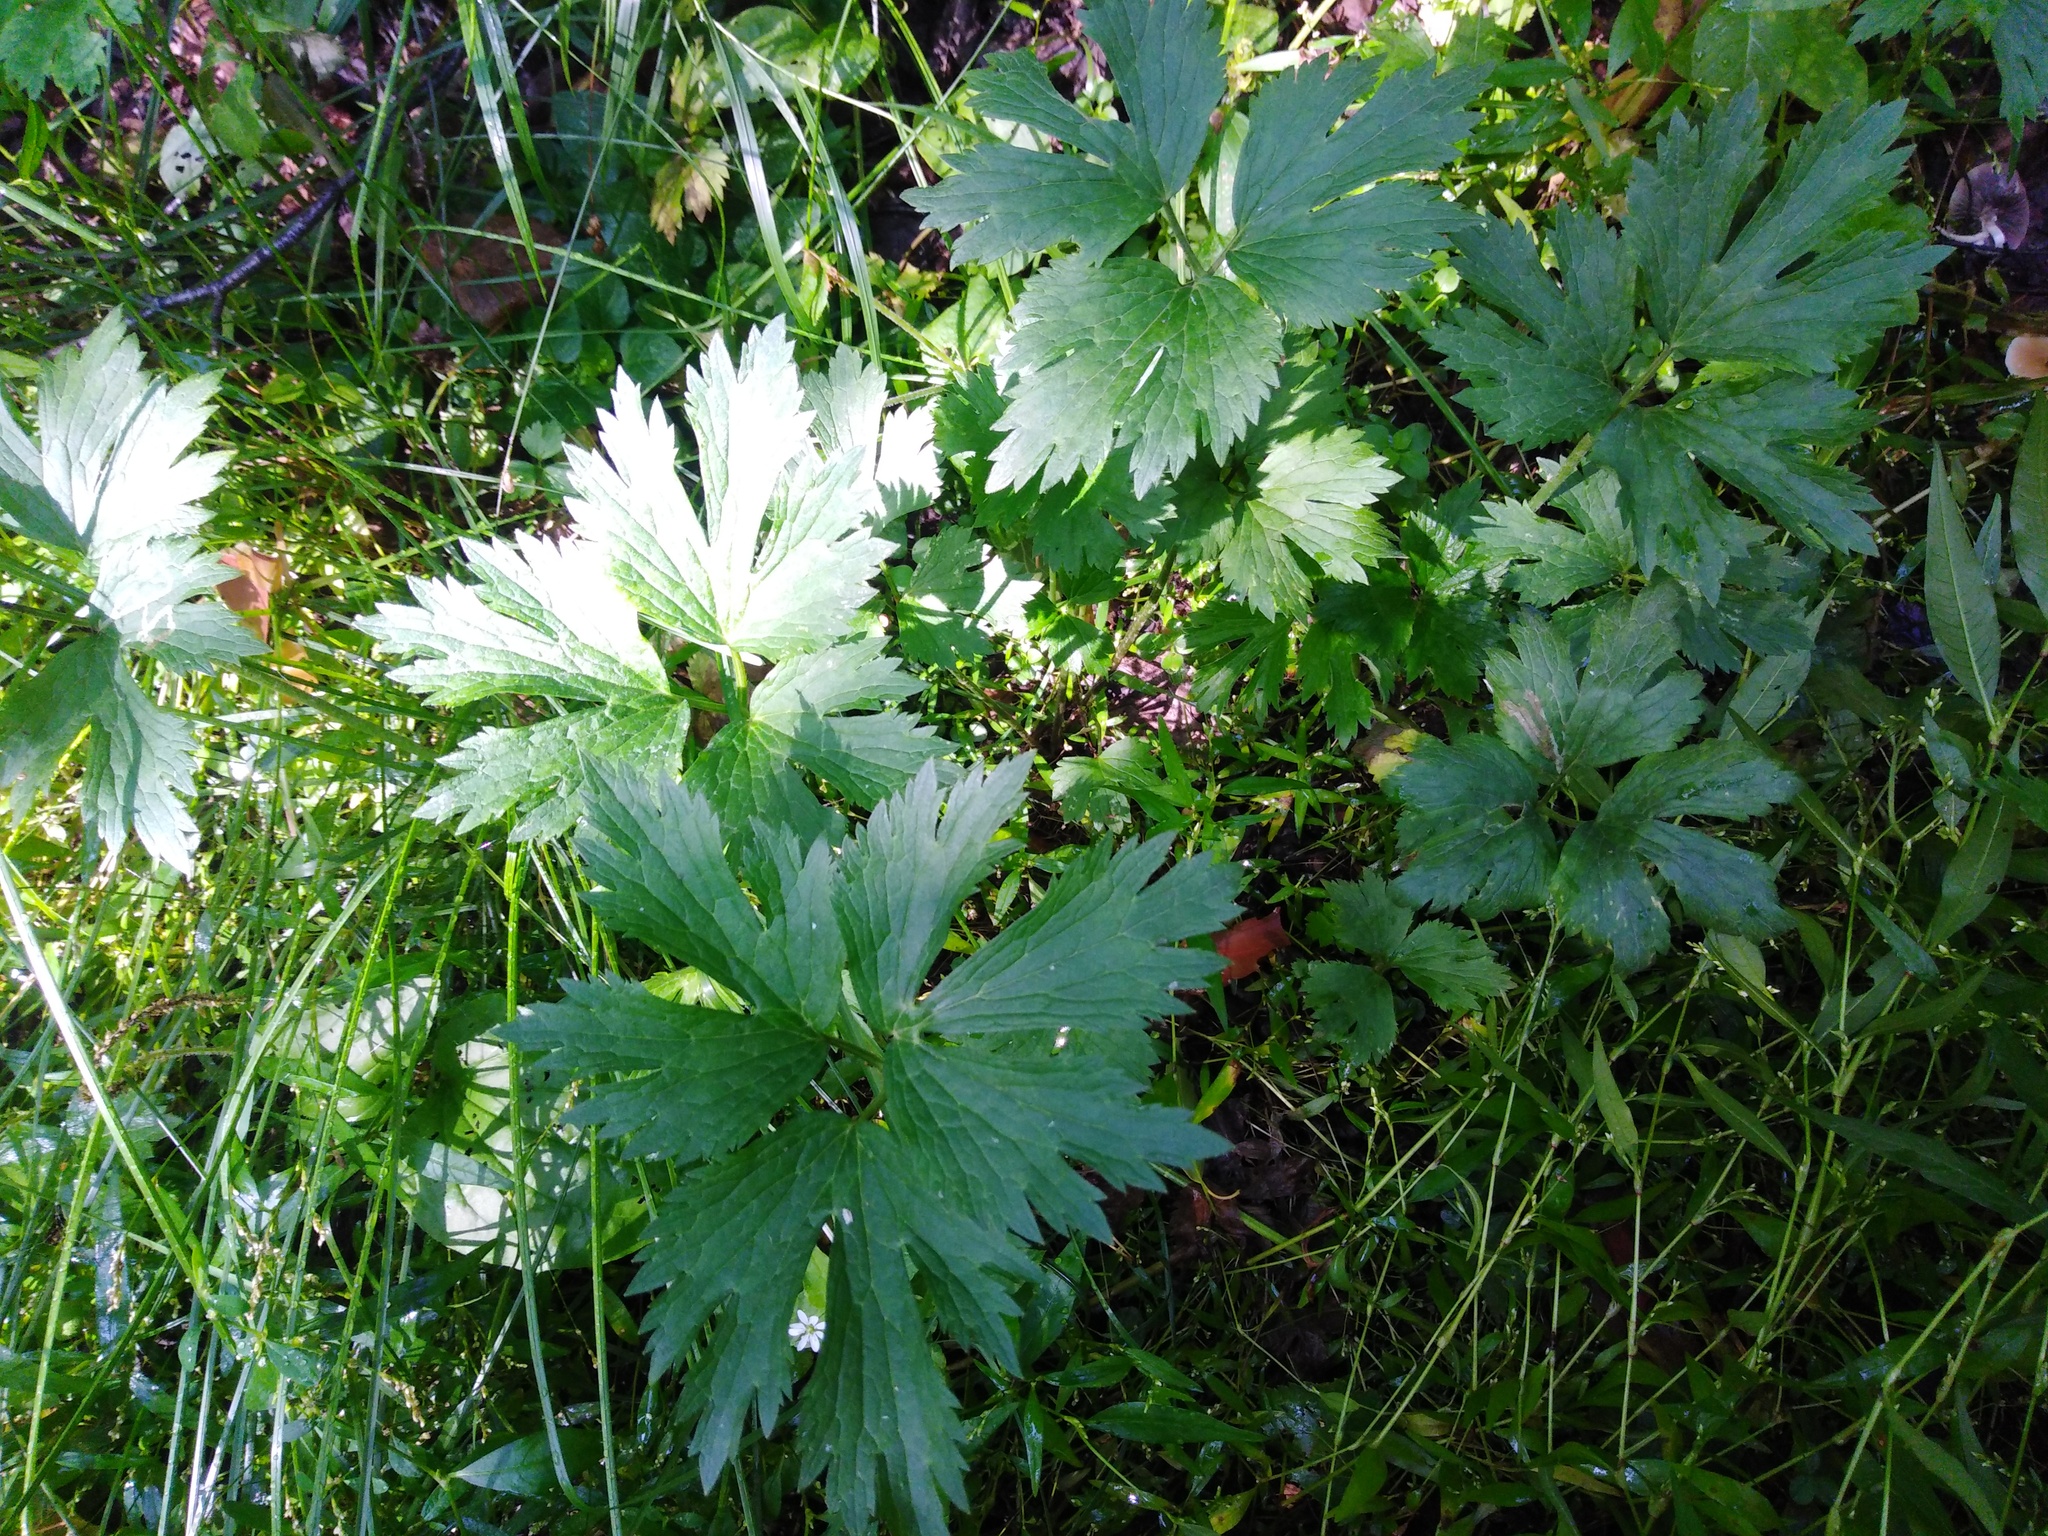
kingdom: Plantae
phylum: Tracheophyta
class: Magnoliopsida
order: Ranunculales
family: Ranunculaceae
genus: Ranunculus
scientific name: Ranunculus repens
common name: Creeping buttercup
